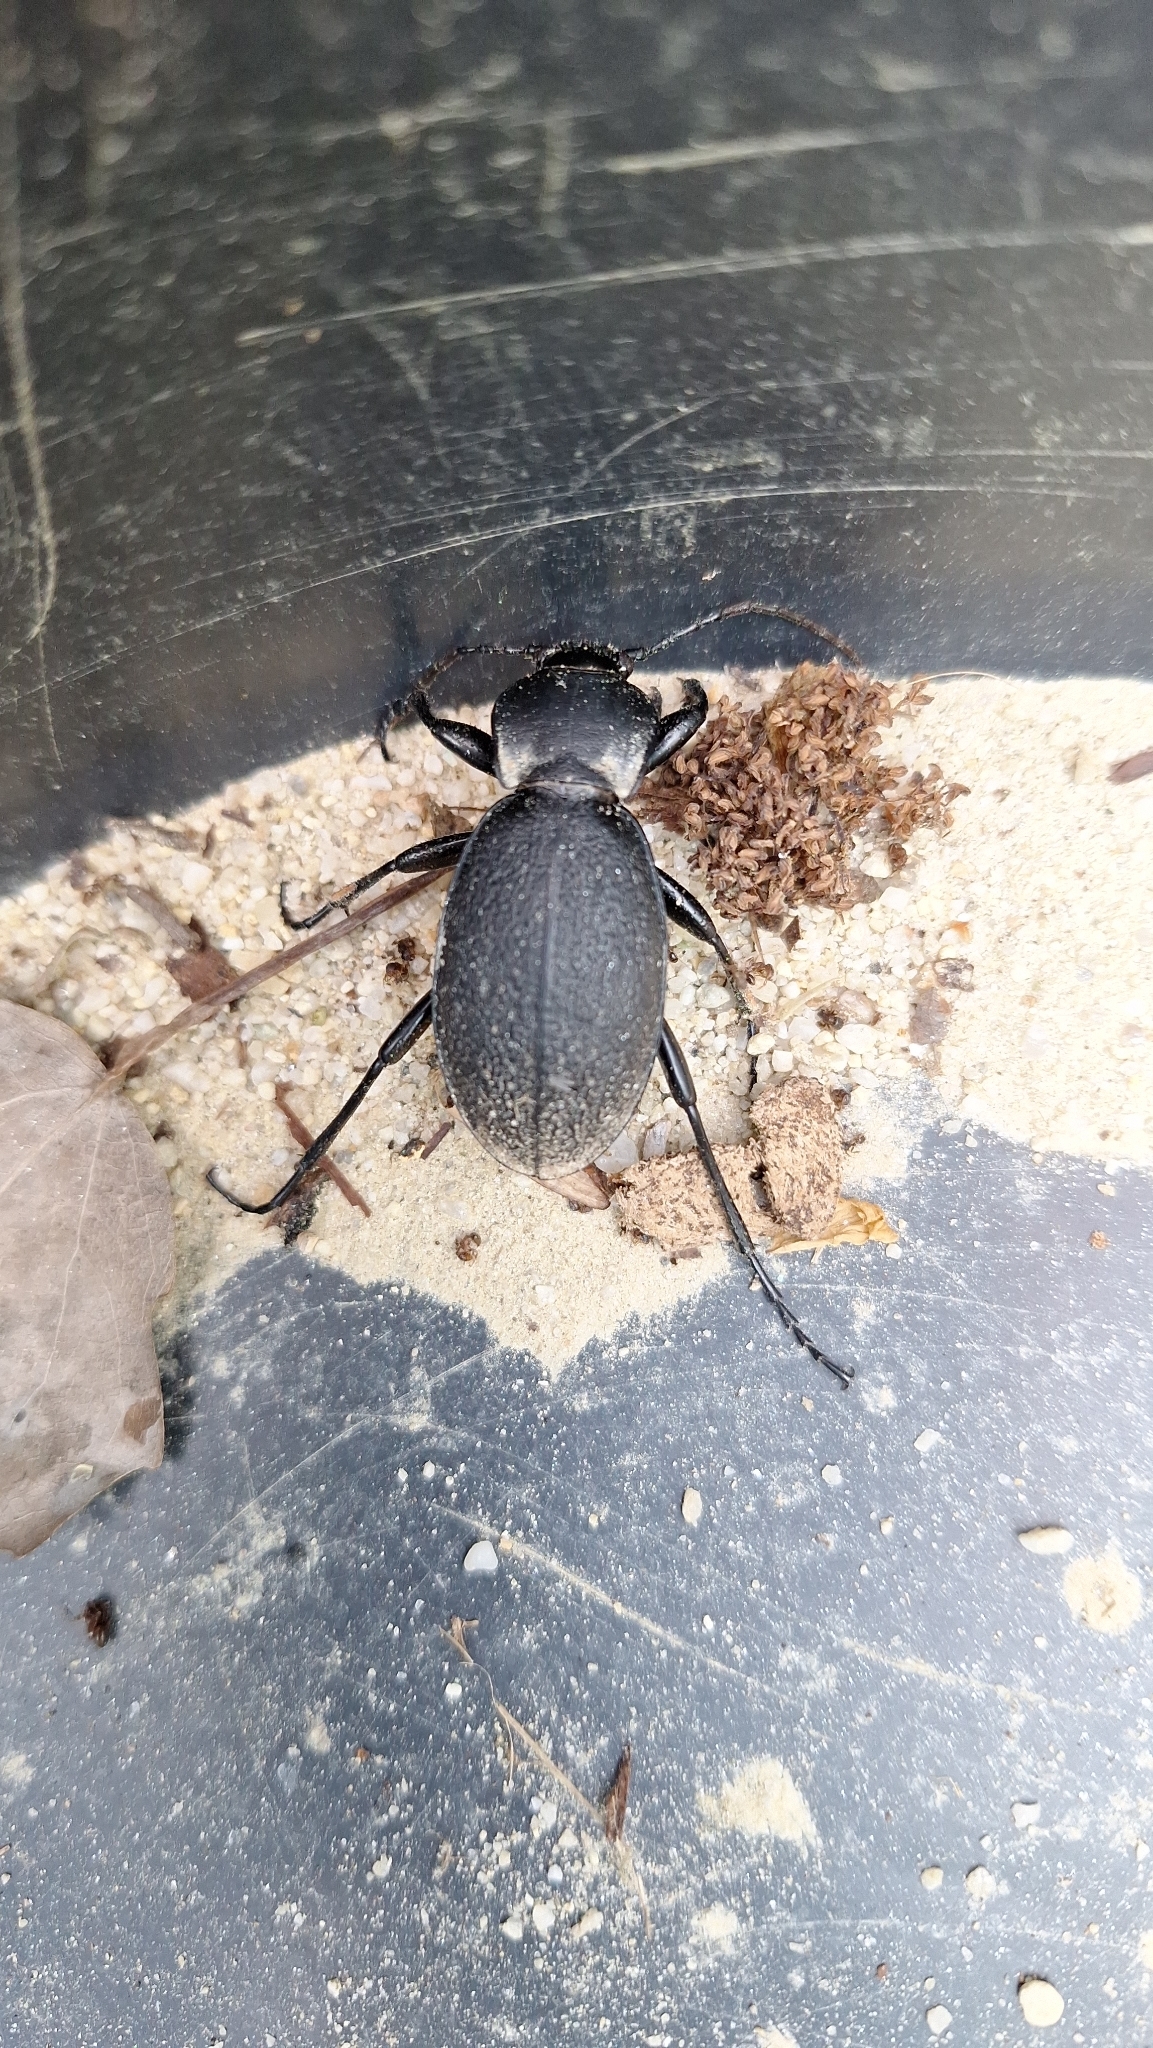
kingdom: Animalia
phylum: Arthropoda
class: Insecta
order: Coleoptera
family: Carabidae
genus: Carabus
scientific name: Carabus coriaceus
